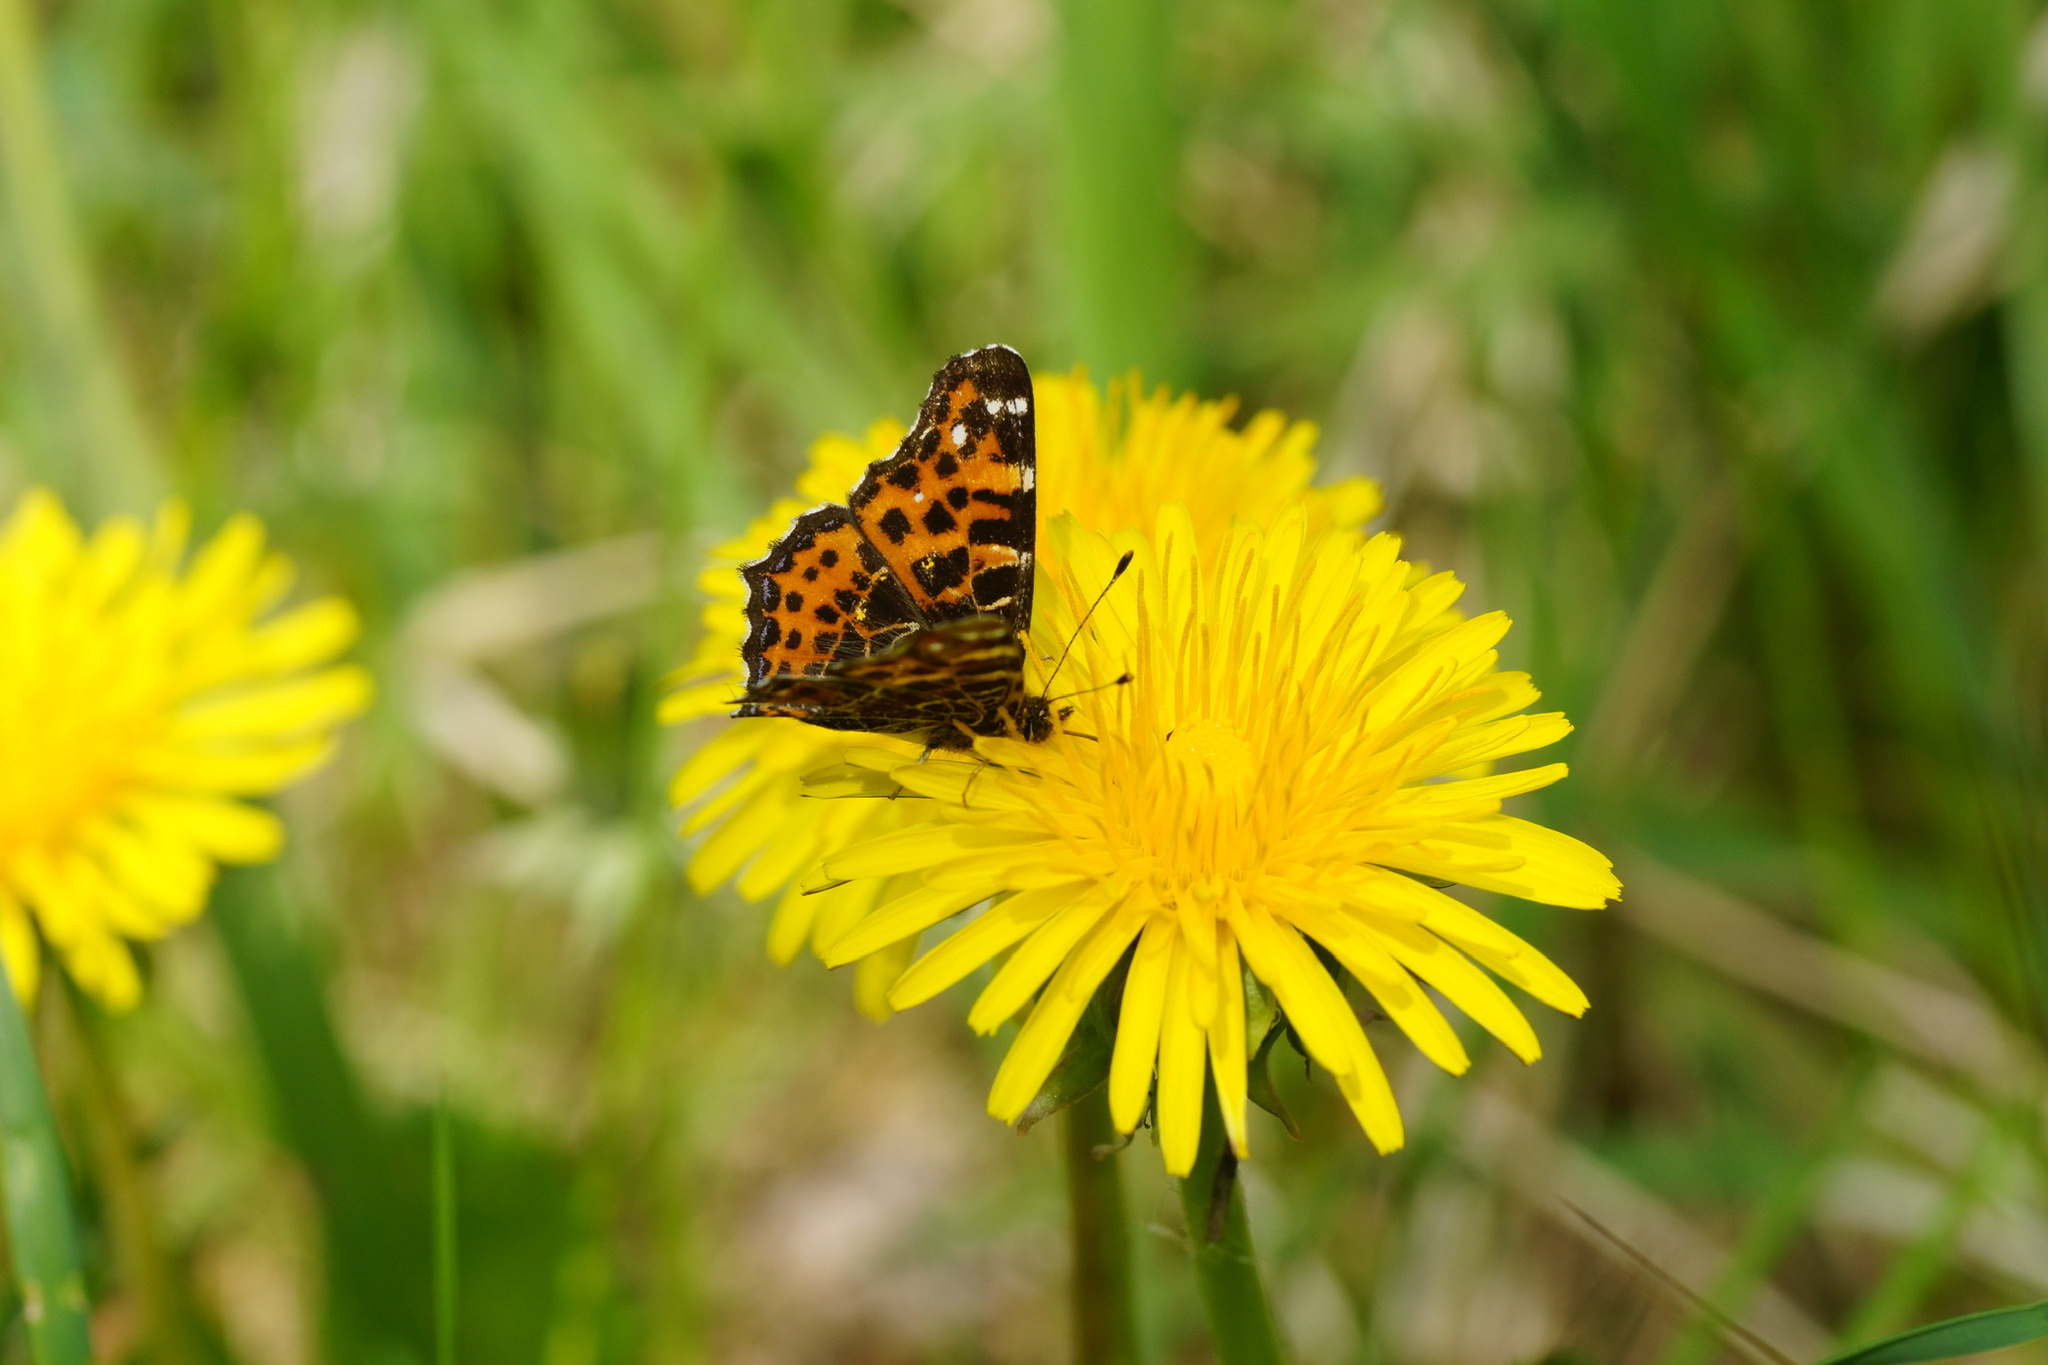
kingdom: Animalia
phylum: Arthropoda
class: Insecta
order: Lepidoptera
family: Nymphalidae
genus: Araschnia
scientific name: Araschnia levana
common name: Map butterfly
